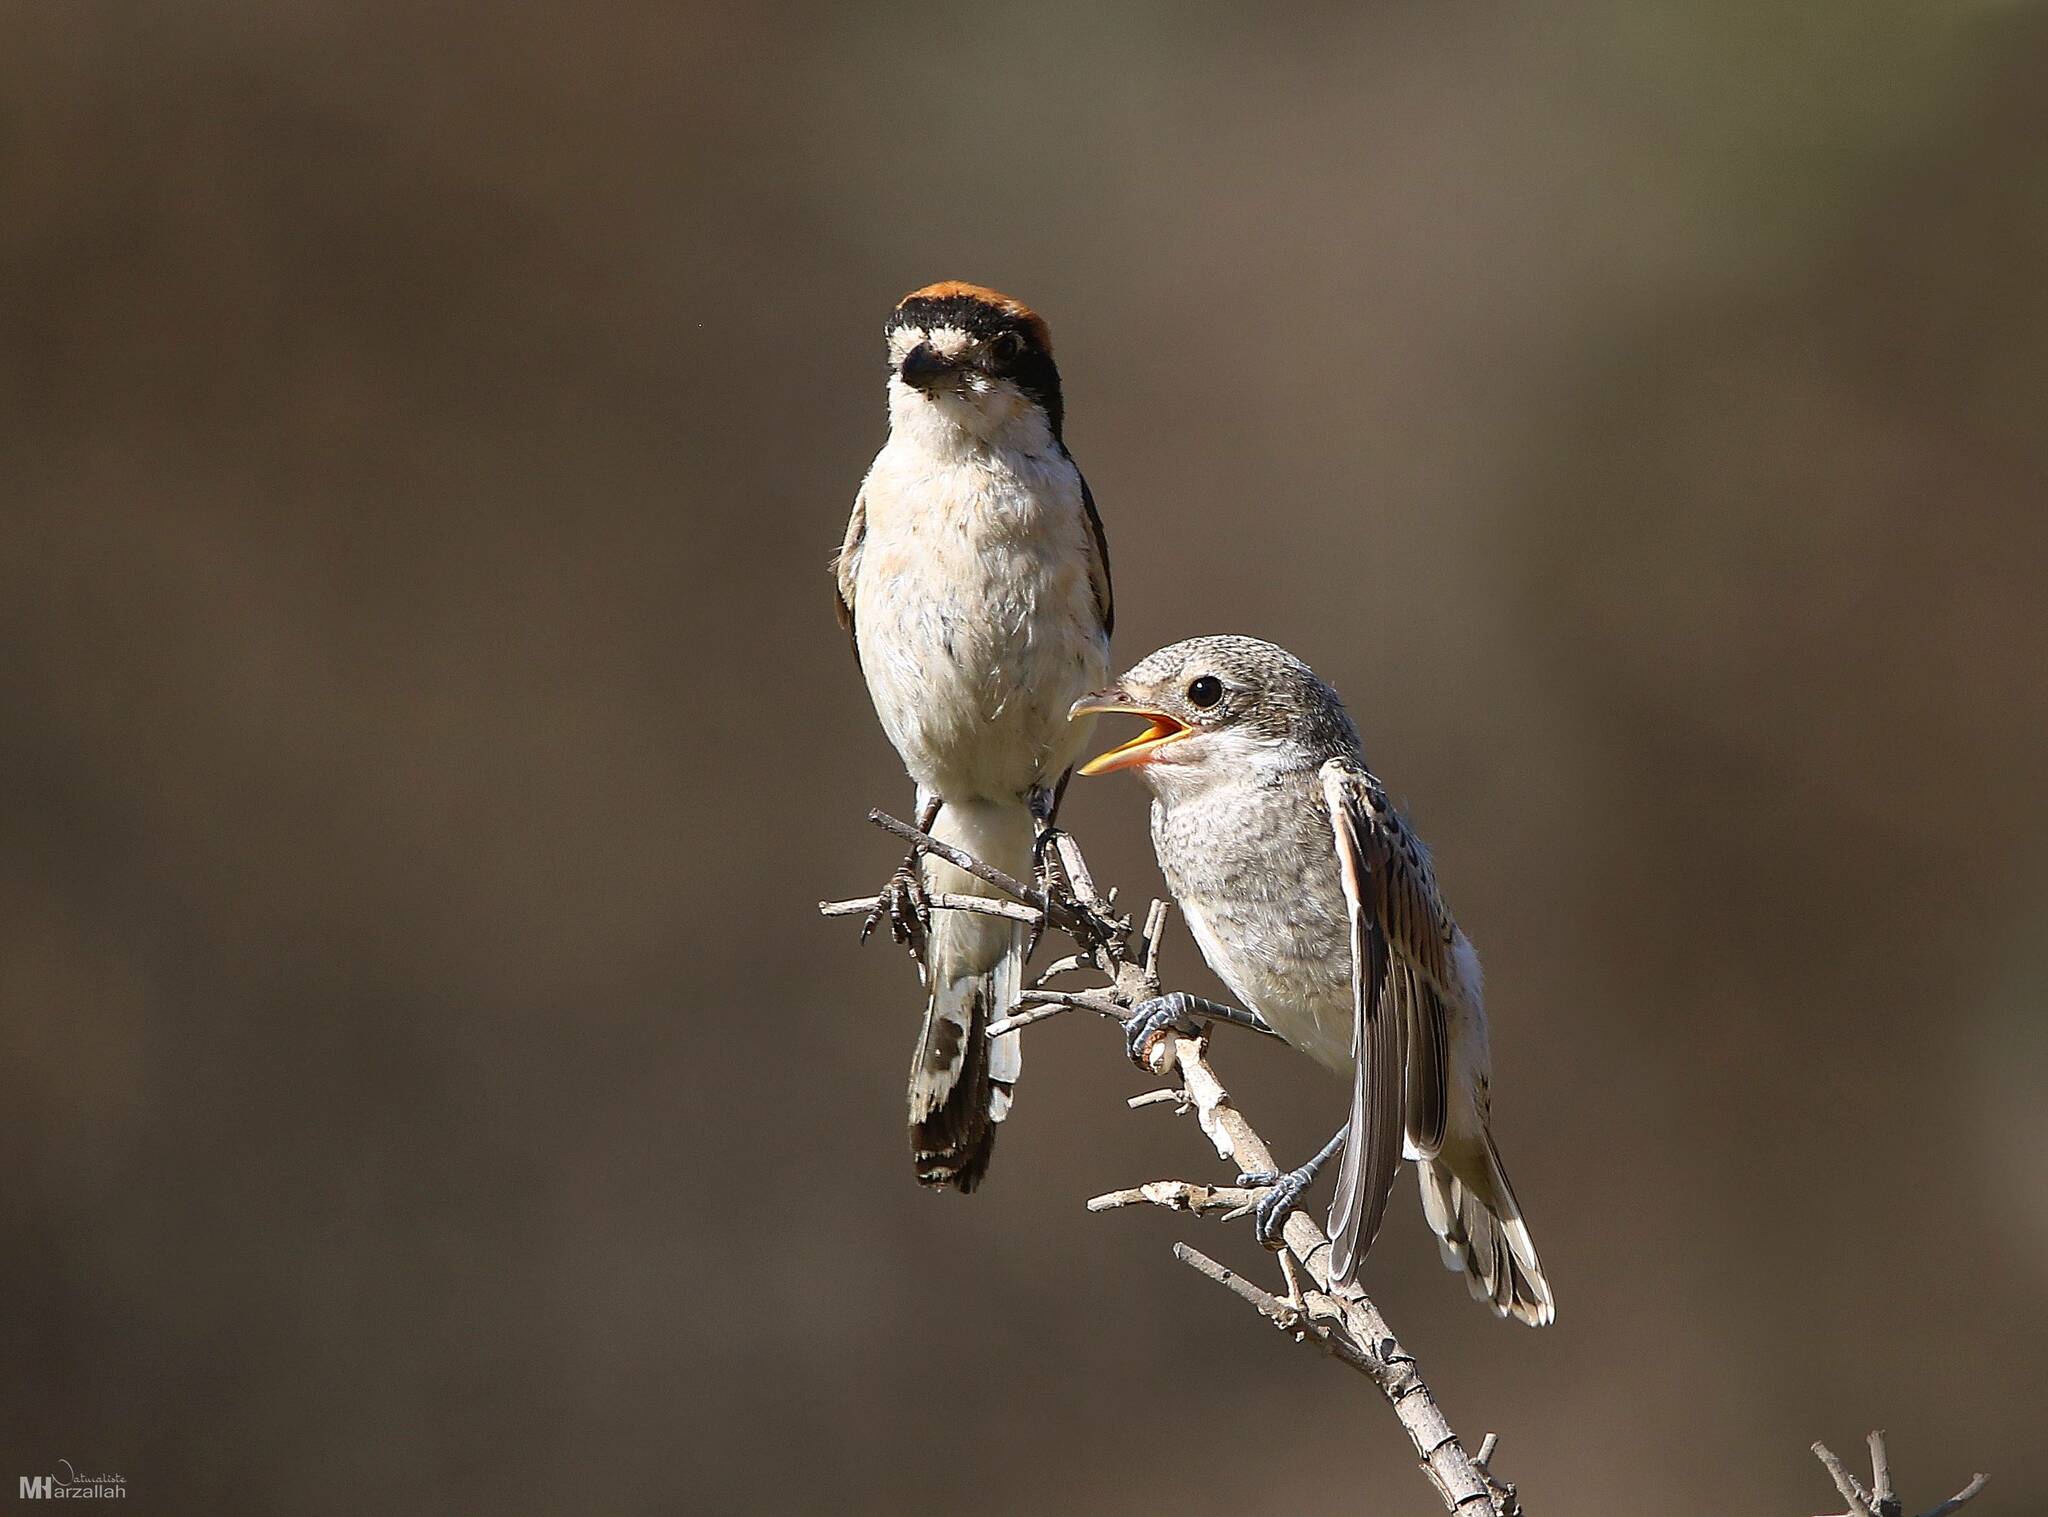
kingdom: Animalia
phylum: Chordata
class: Aves
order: Passeriformes
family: Laniidae
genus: Lanius
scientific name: Lanius senator
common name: Woodchat shrike
